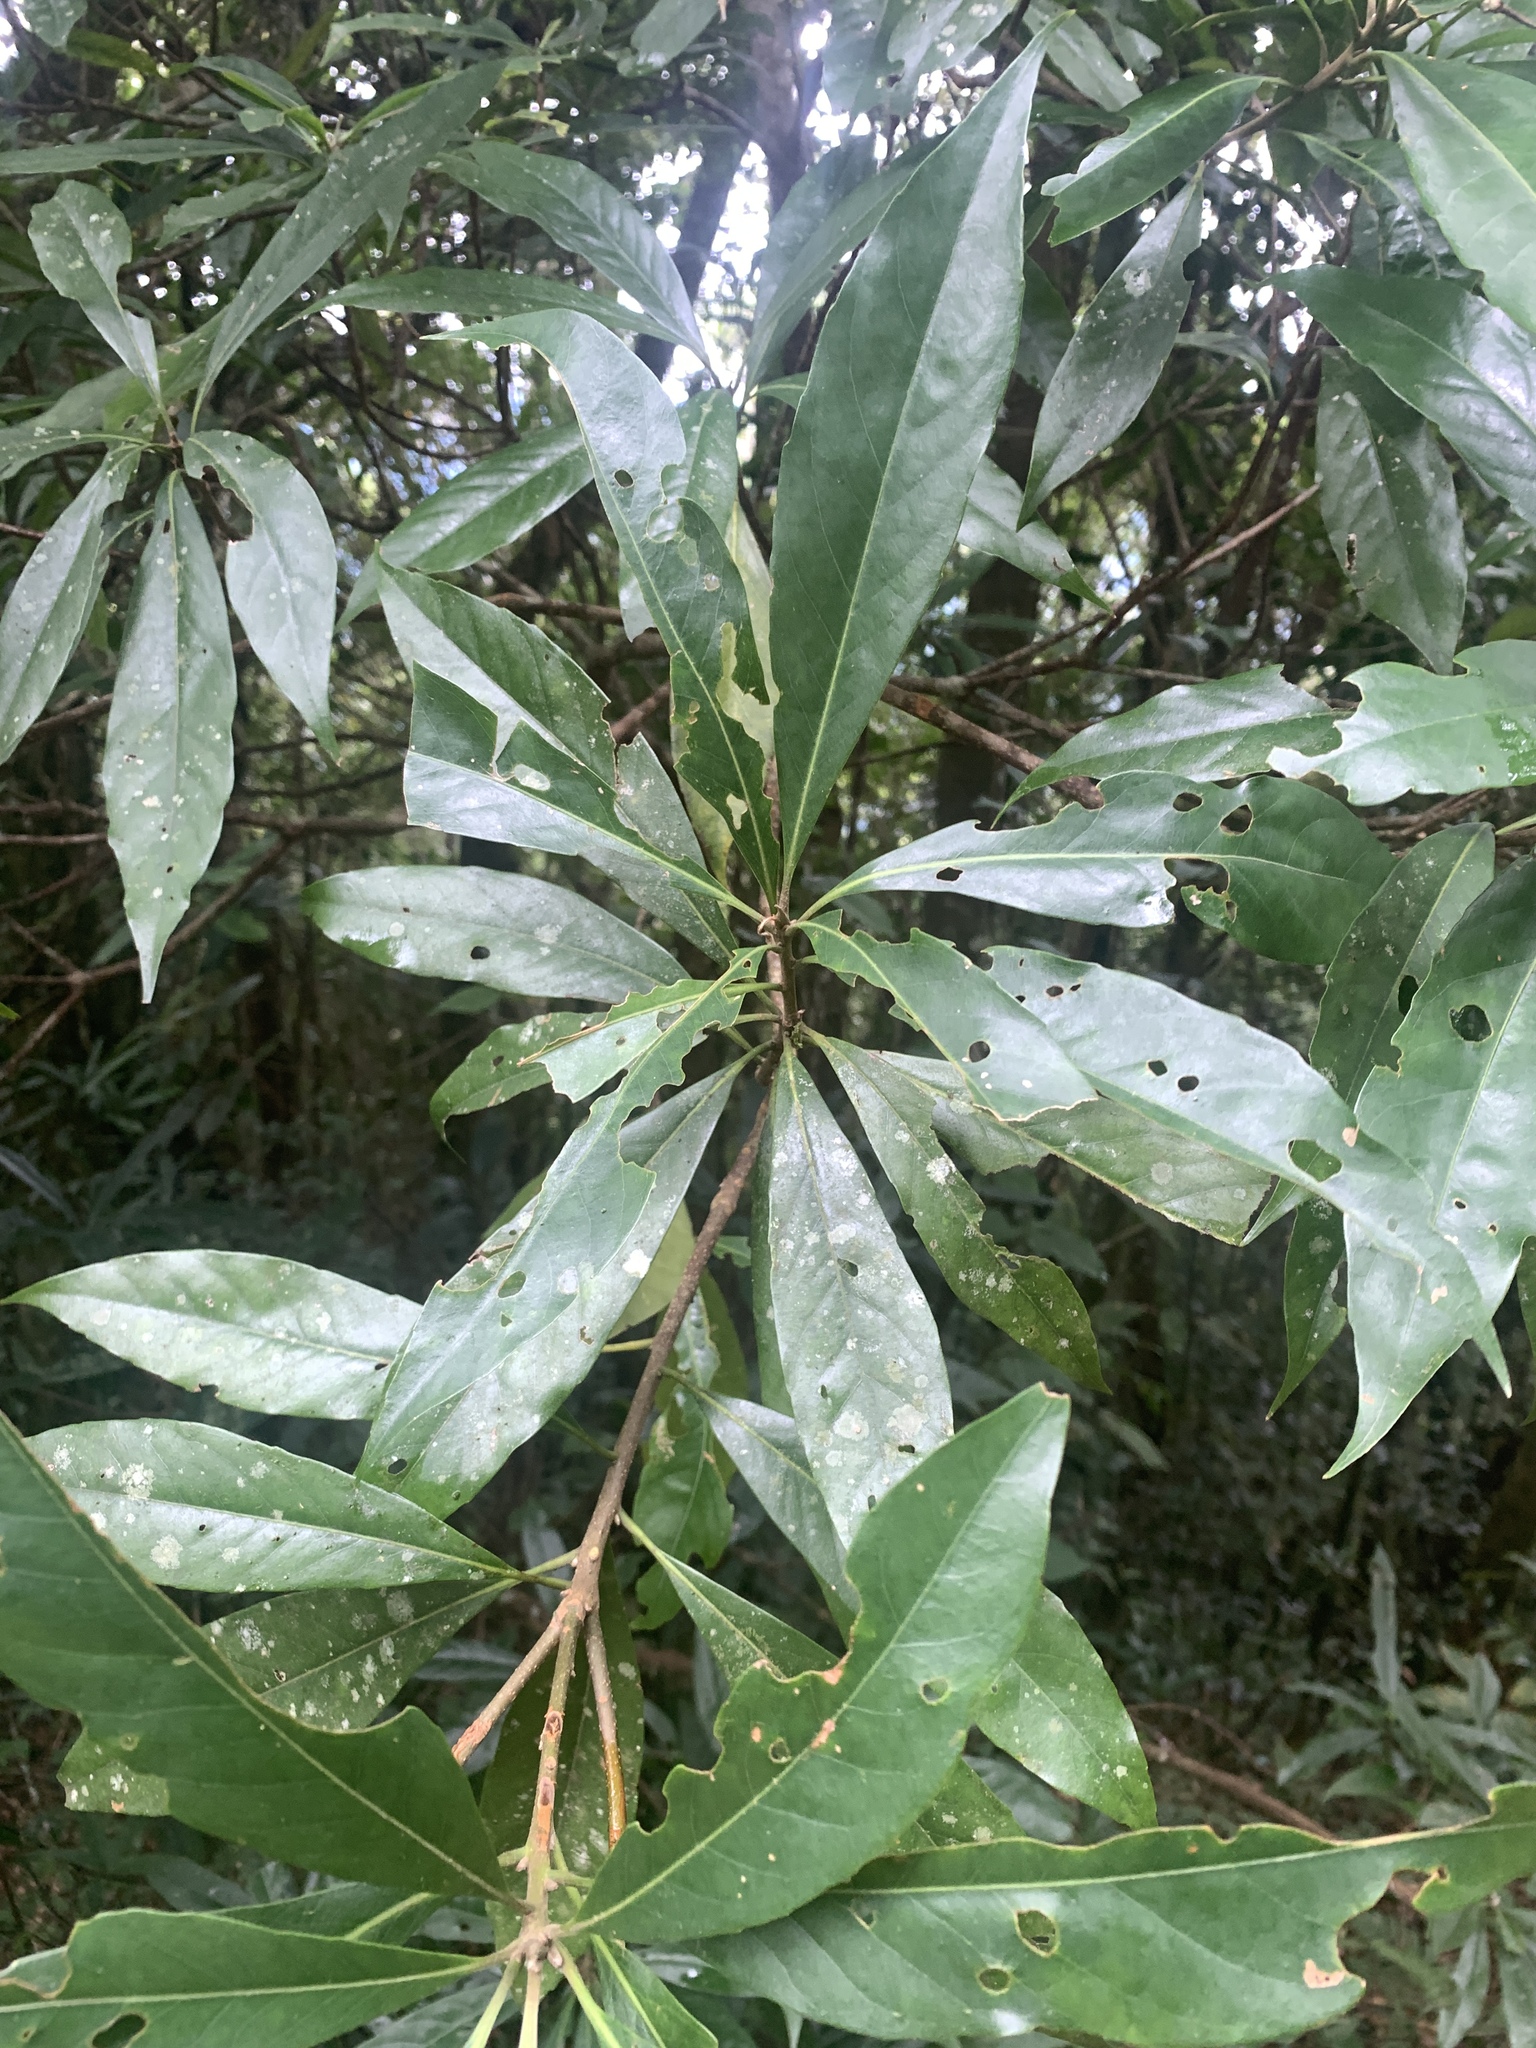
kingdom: Plantae
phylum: Tracheophyta
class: Magnoliopsida
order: Ericales
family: Theaceae
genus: Schima
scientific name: Schima superba
